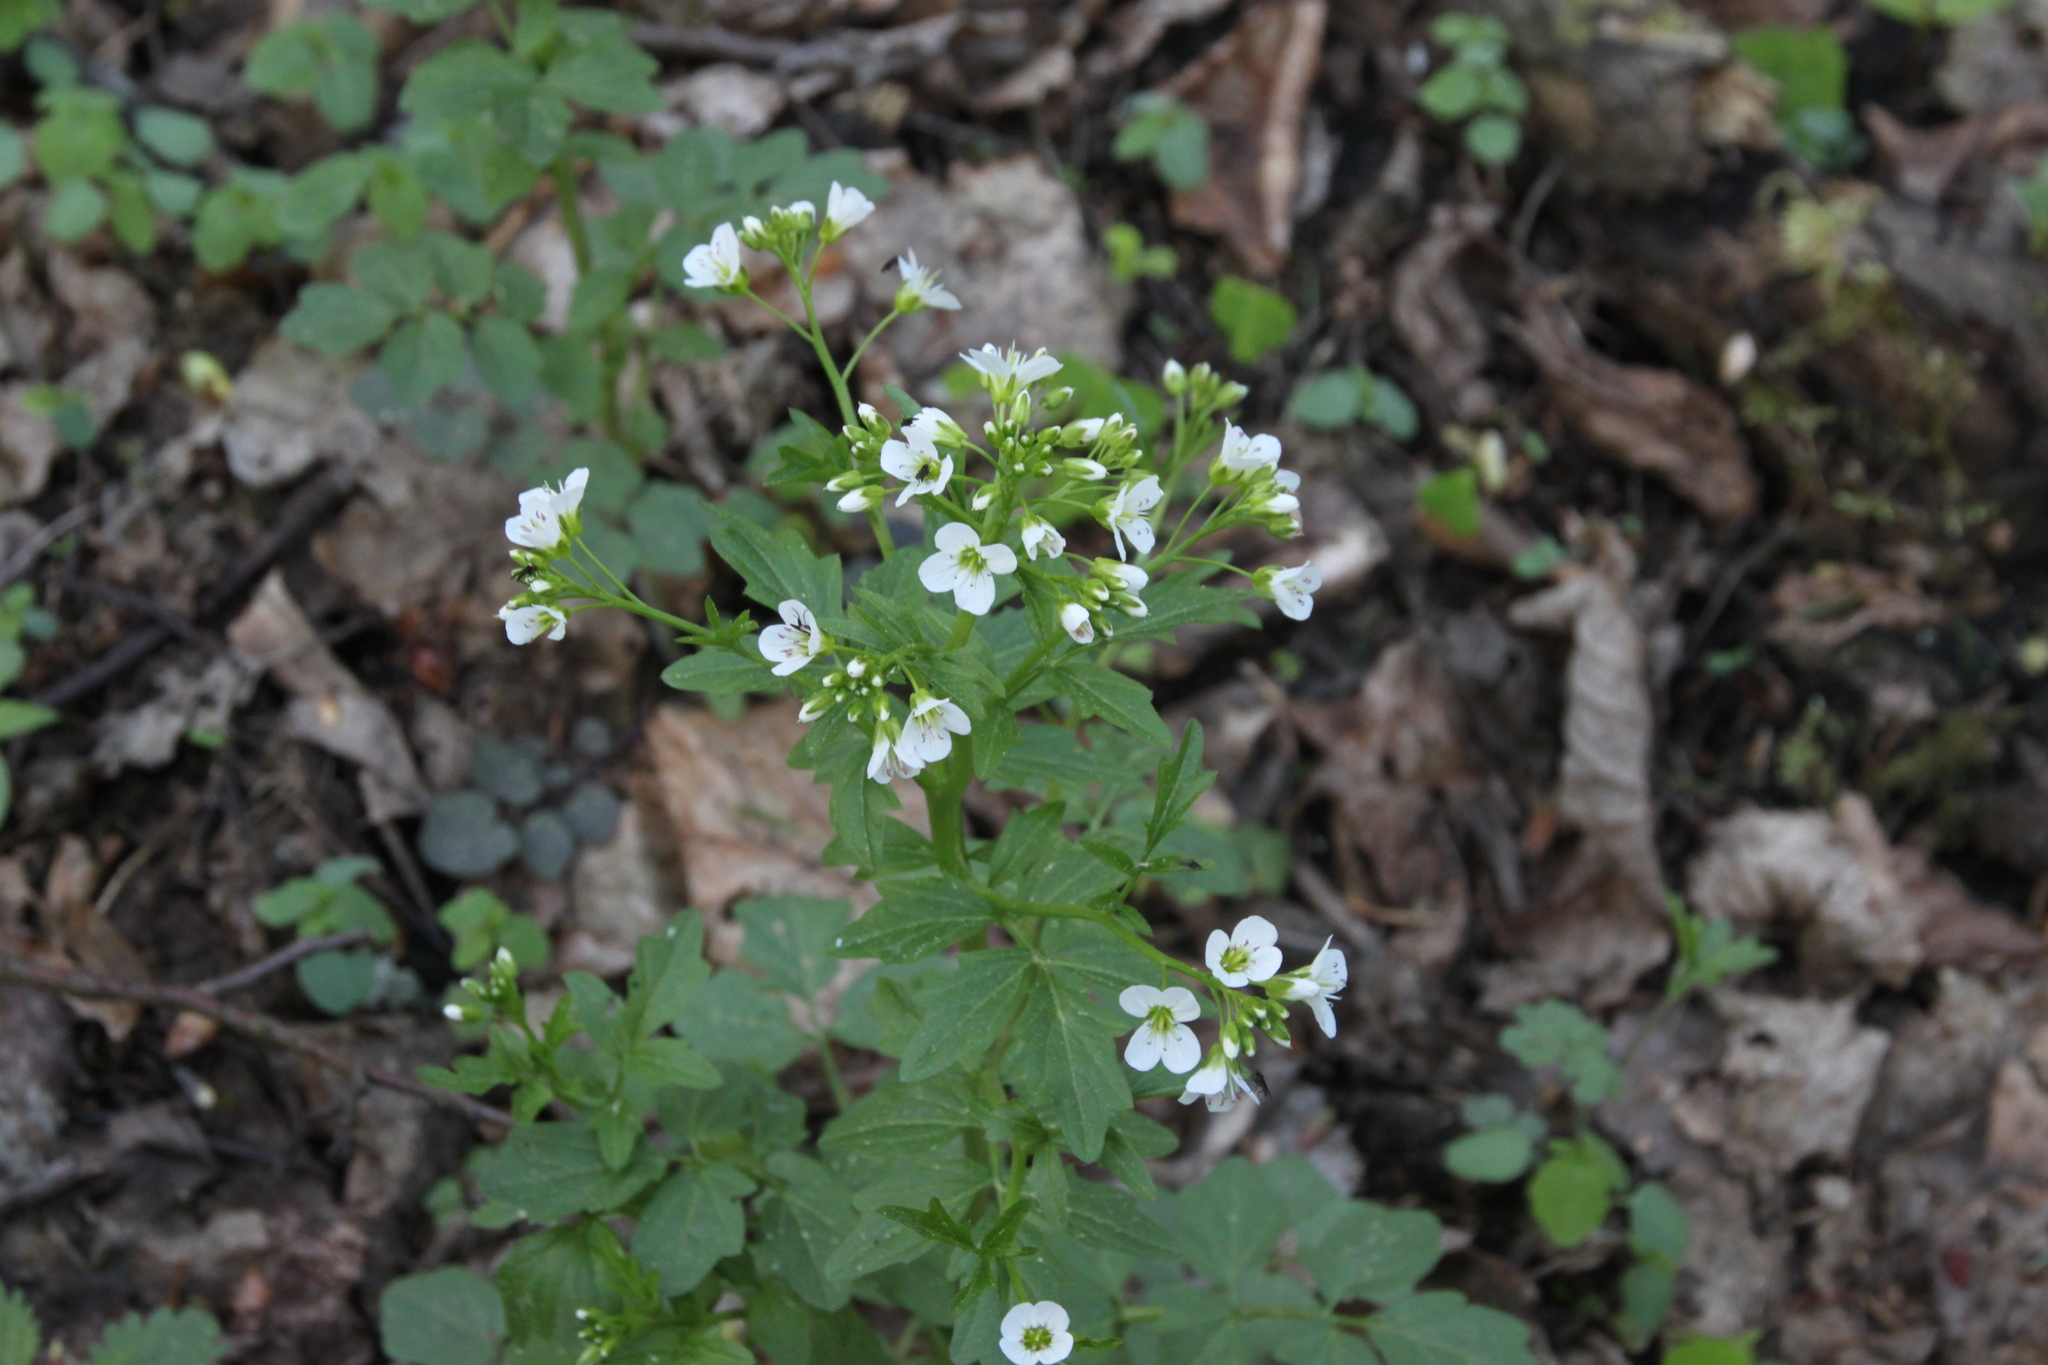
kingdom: Plantae
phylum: Tracheophyta
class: Magnoliopsida
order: Brassicales
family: Brassicaceae
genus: Cardamine
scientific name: Cardamine amara
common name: Large bitter-cress
